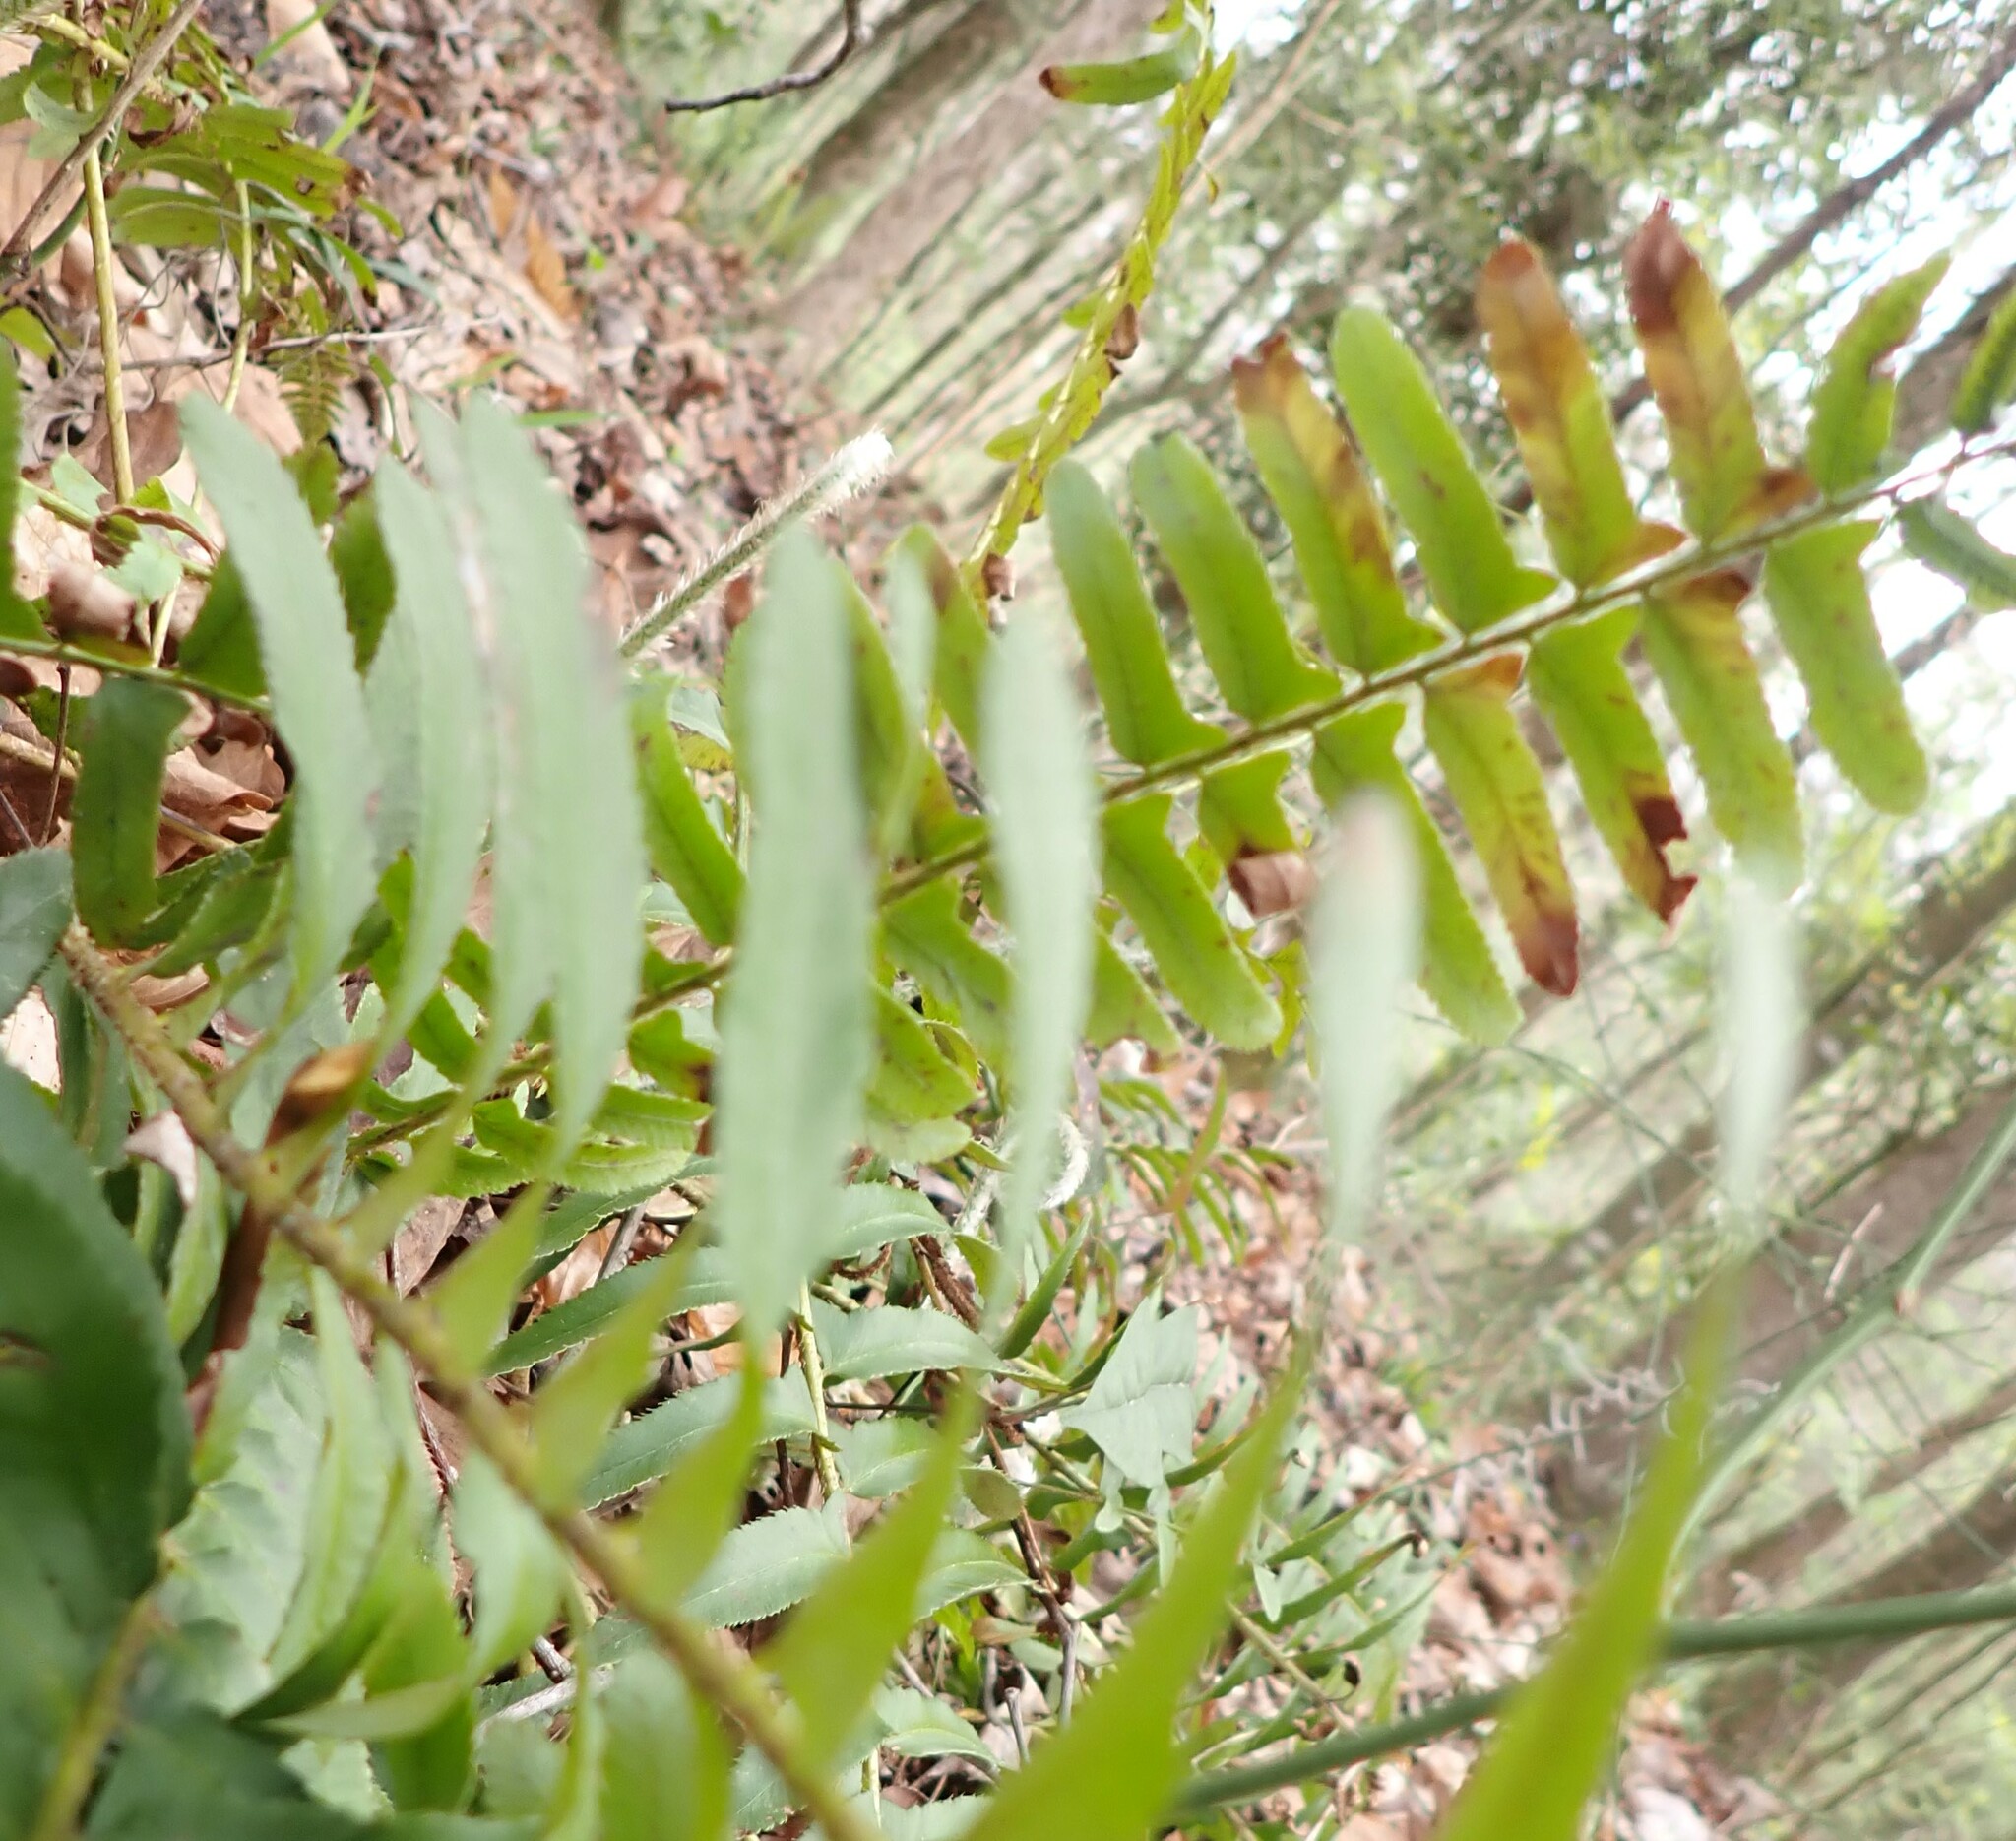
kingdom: Plantae
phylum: Tracheophyta
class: Polypodiopsida
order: Polypodiales
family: Dryopteridaceae
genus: Polystichum
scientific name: Polystichum acrostichoides
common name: Christmas fern
